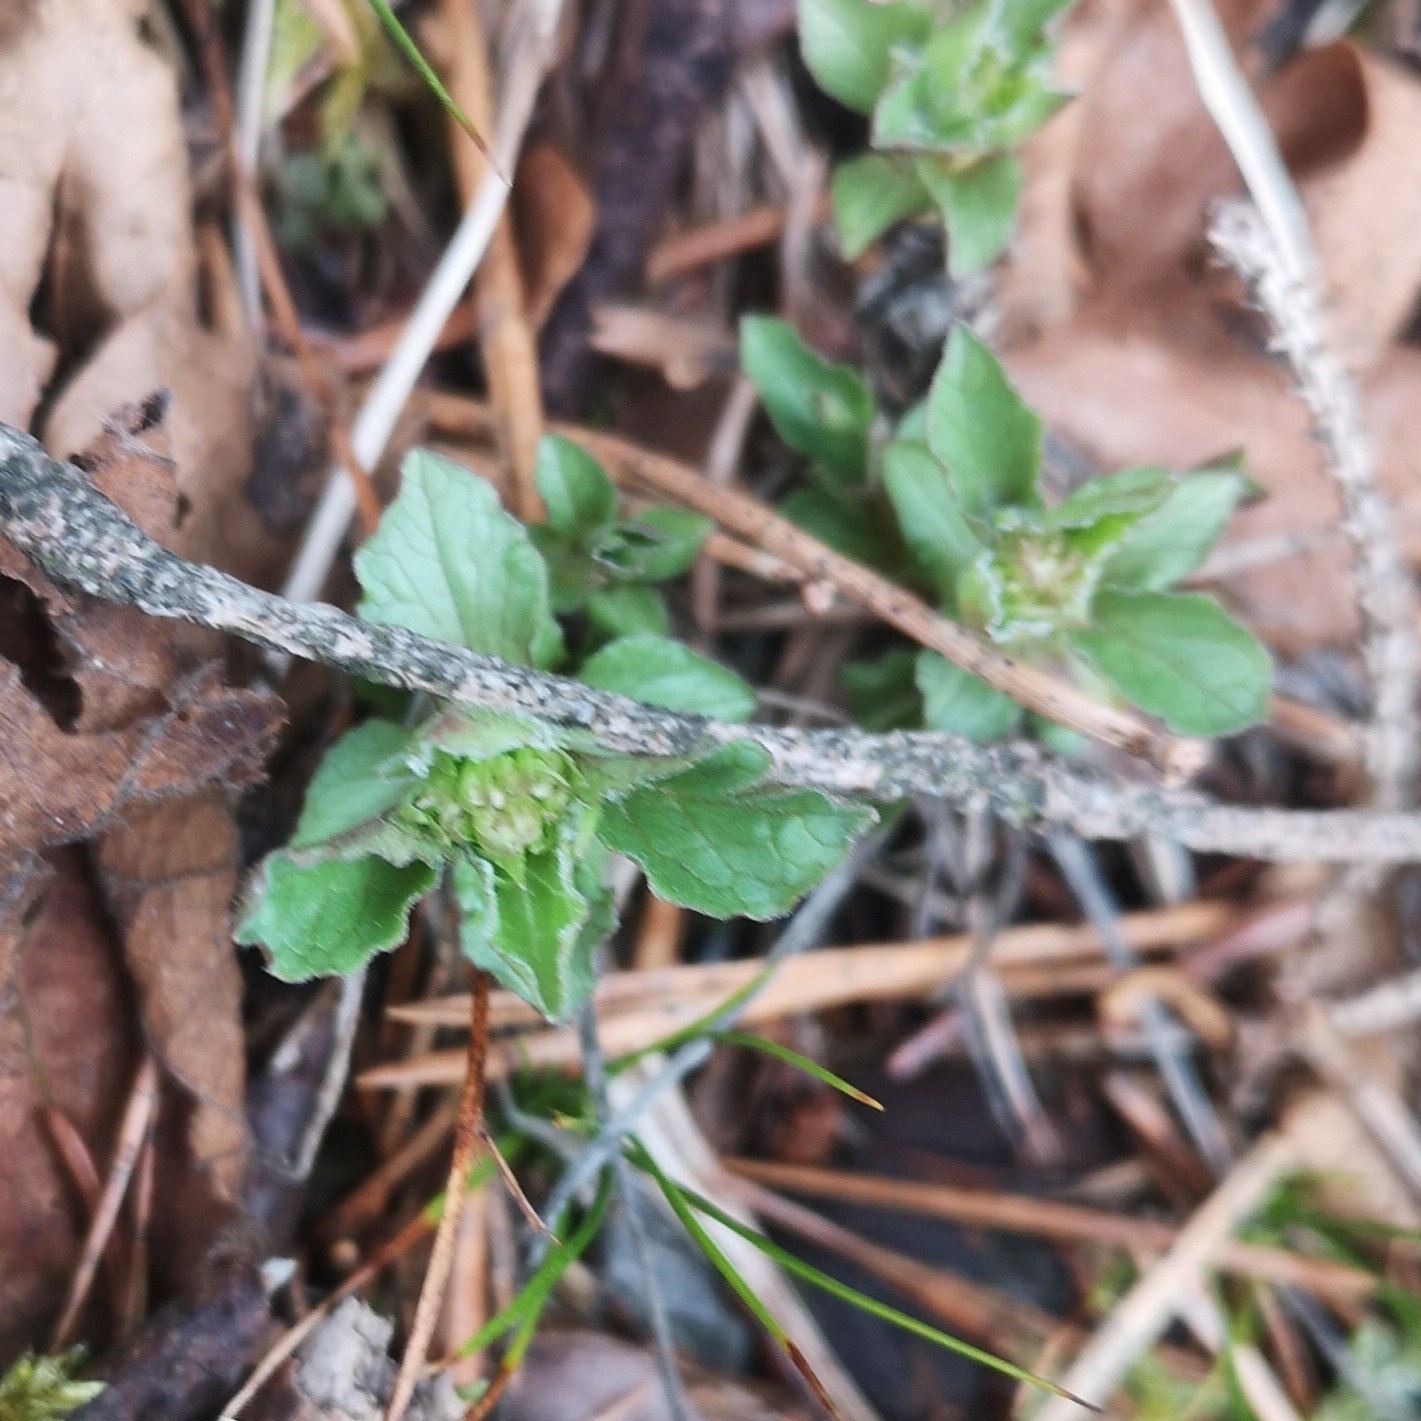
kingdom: Plantae
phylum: Tracheophyta
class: Magnoliopsida
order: Dipsacales
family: Caprifoliaceae
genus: Valeriana
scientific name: Valeriana tripteris
